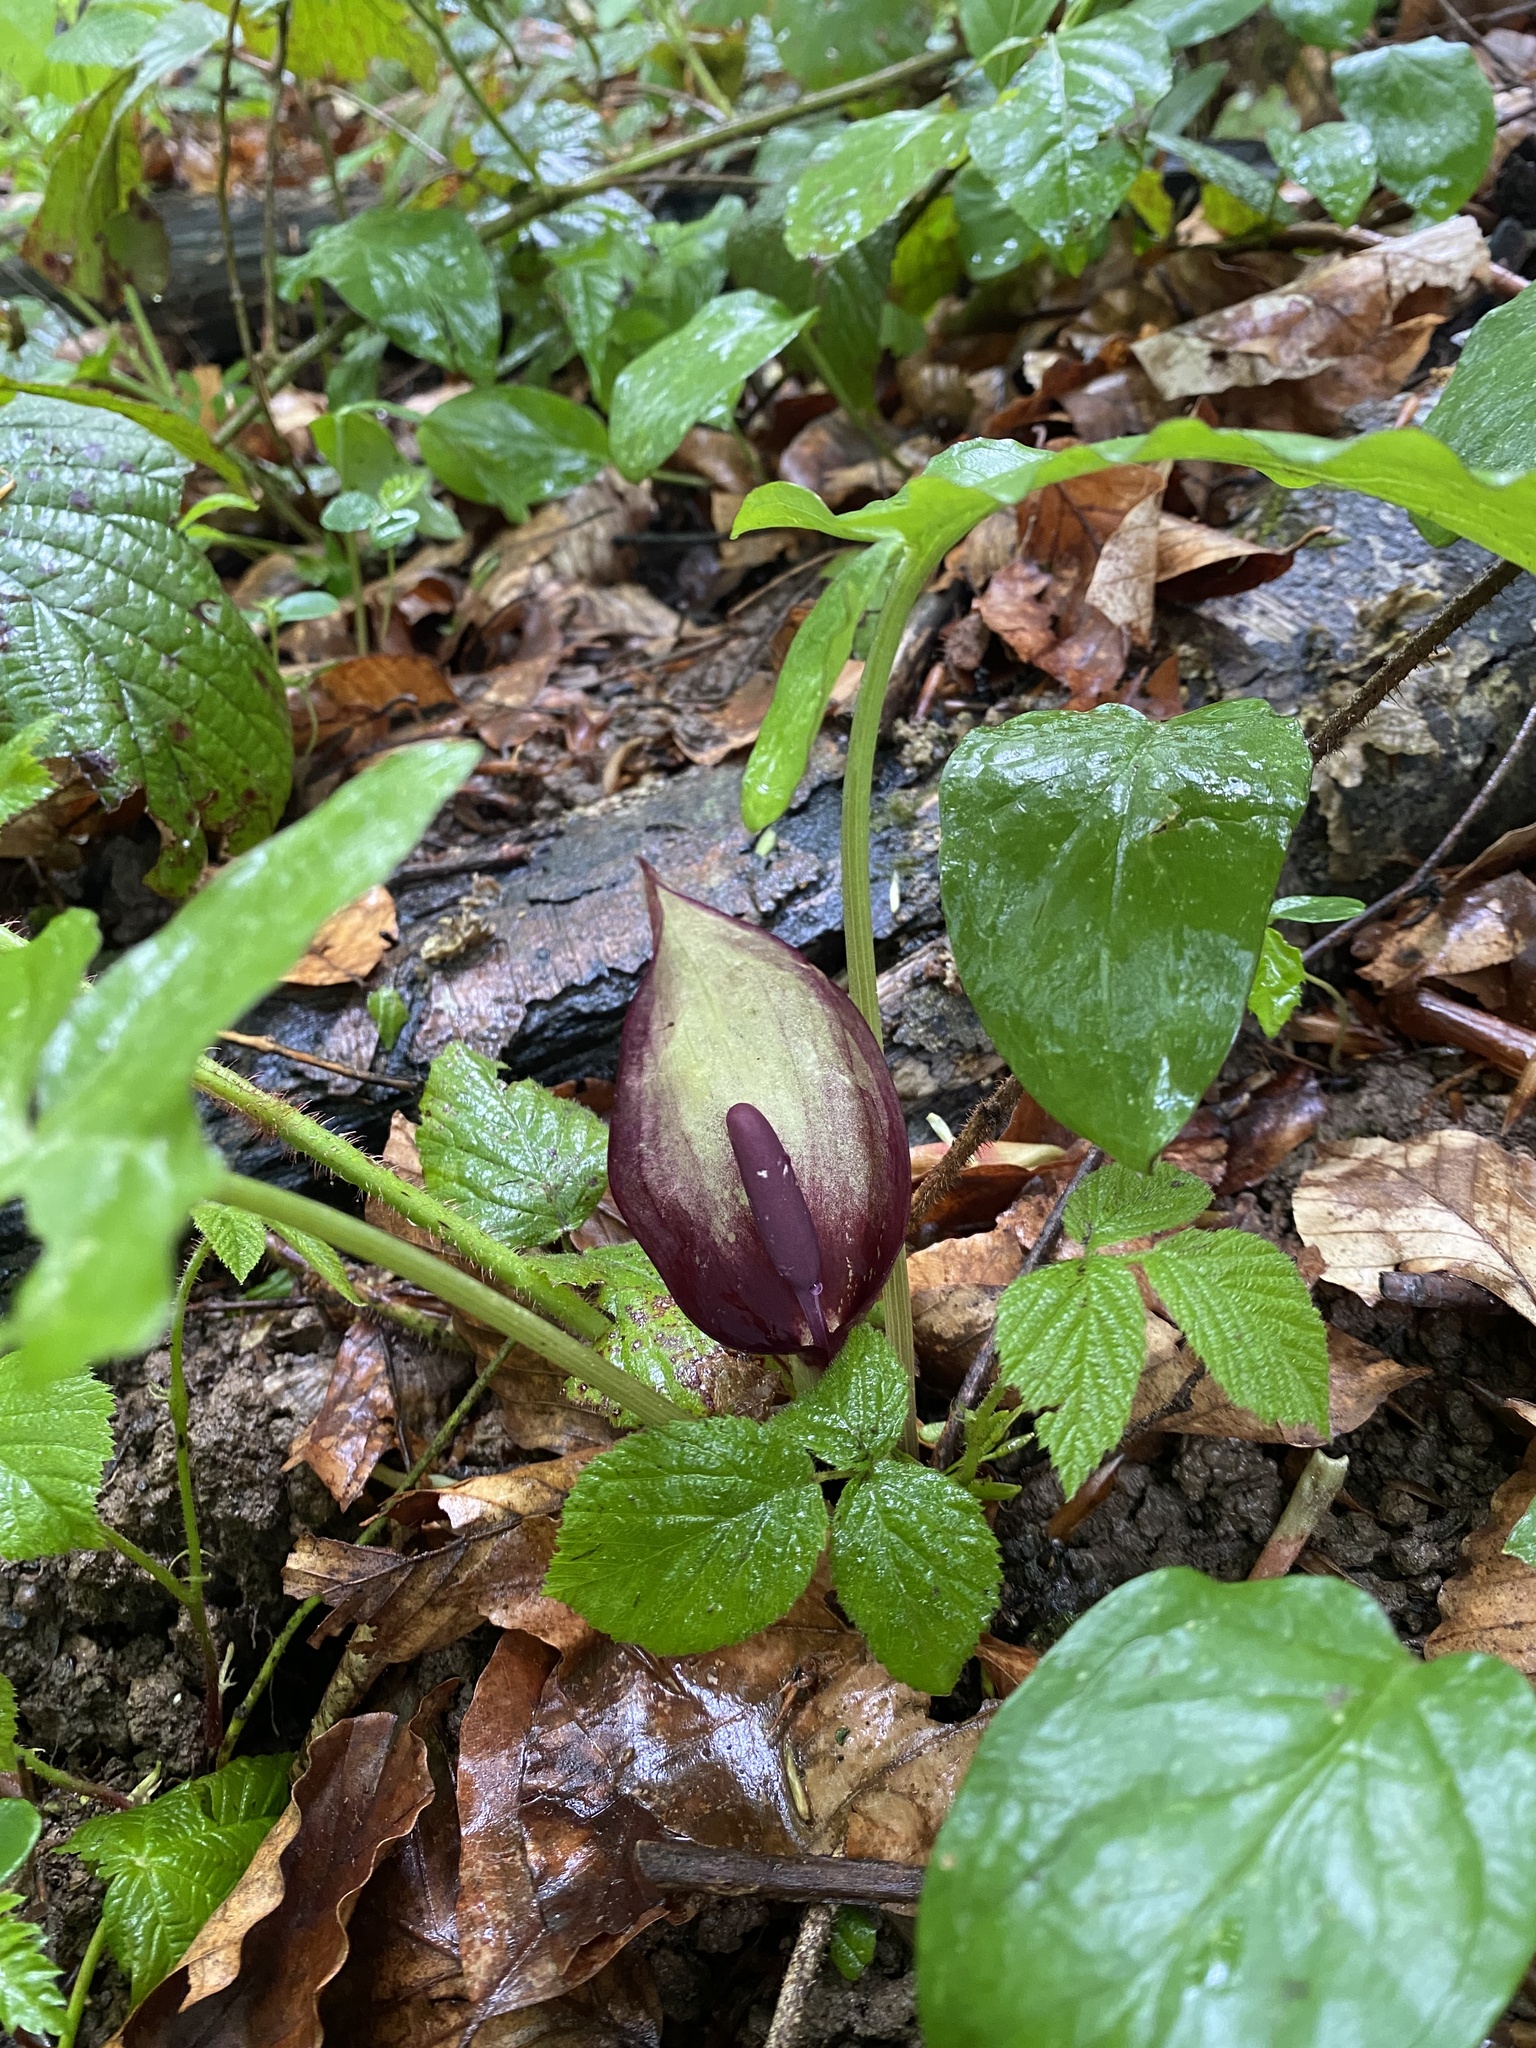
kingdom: Plantae
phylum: Tracheophyta
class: Liliopsida
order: Alismatales
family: Araceae
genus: Arum
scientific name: Arum orientale
